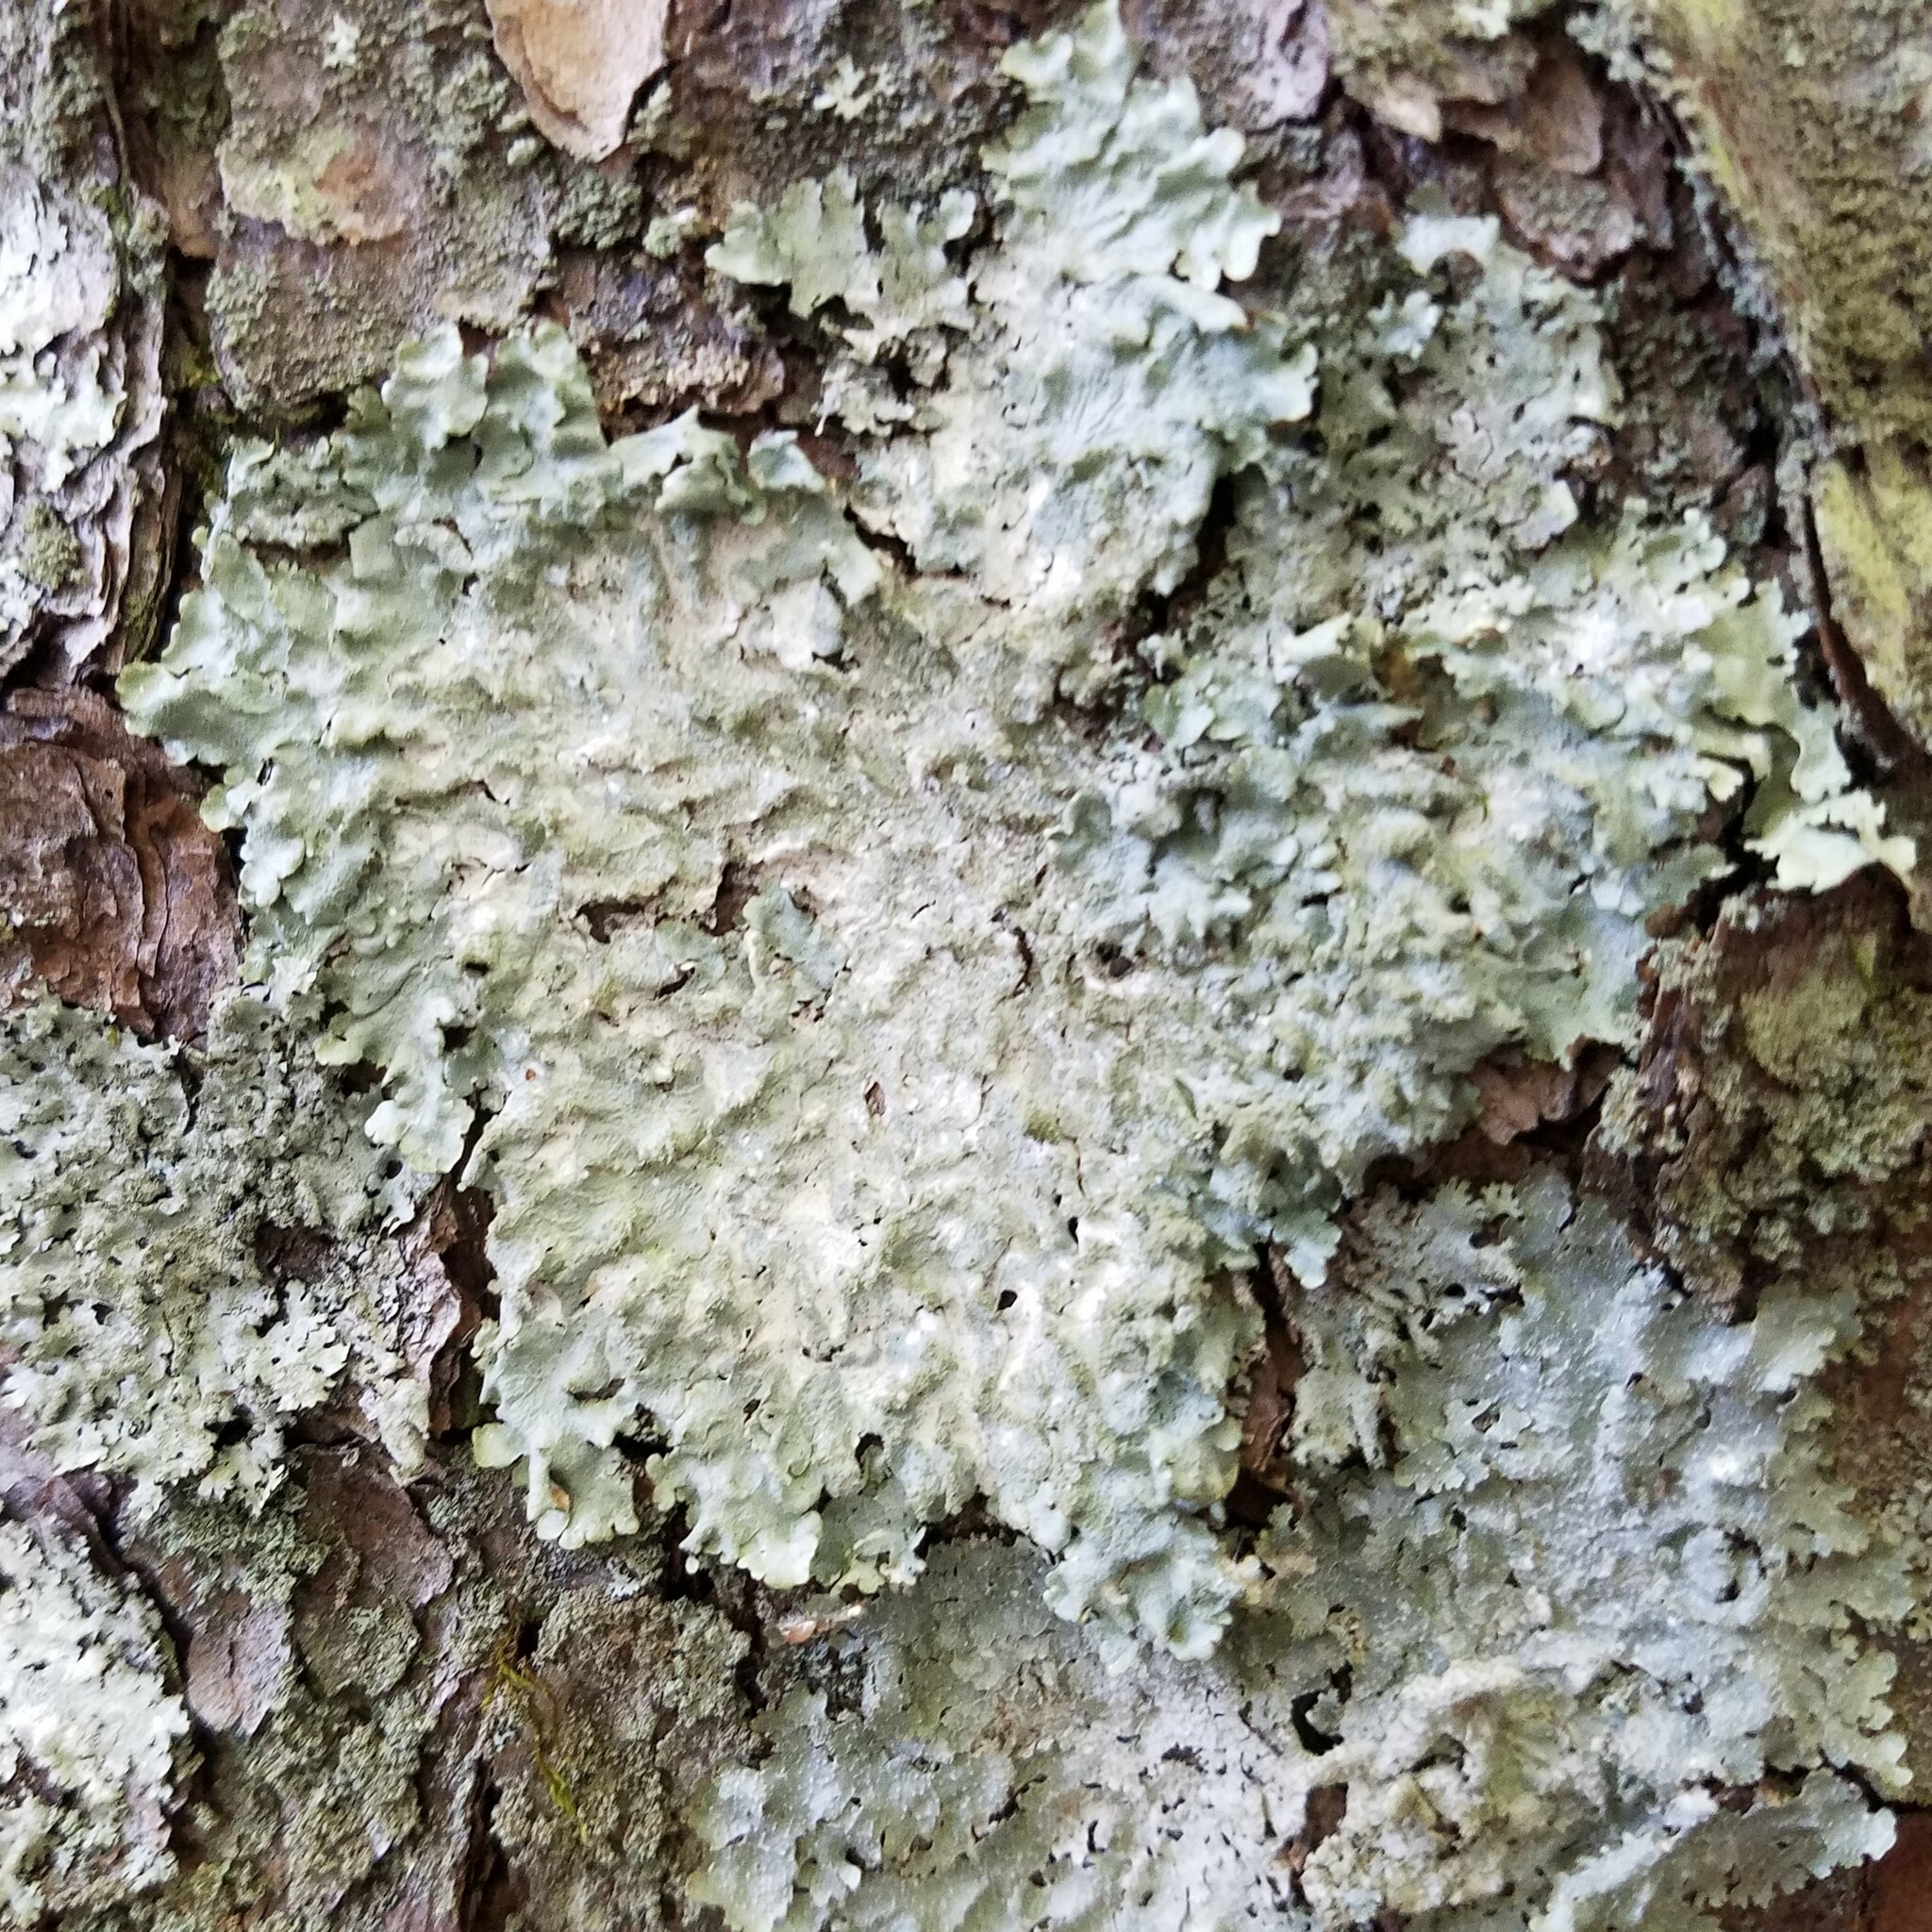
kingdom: Fungi
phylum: Ascomycota
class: Lecanoromycetes
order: Lecanorales
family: Parmeliaceae
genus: Canoparmelia
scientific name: Canoparmelia caroliniana
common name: Carolina shield lichen
